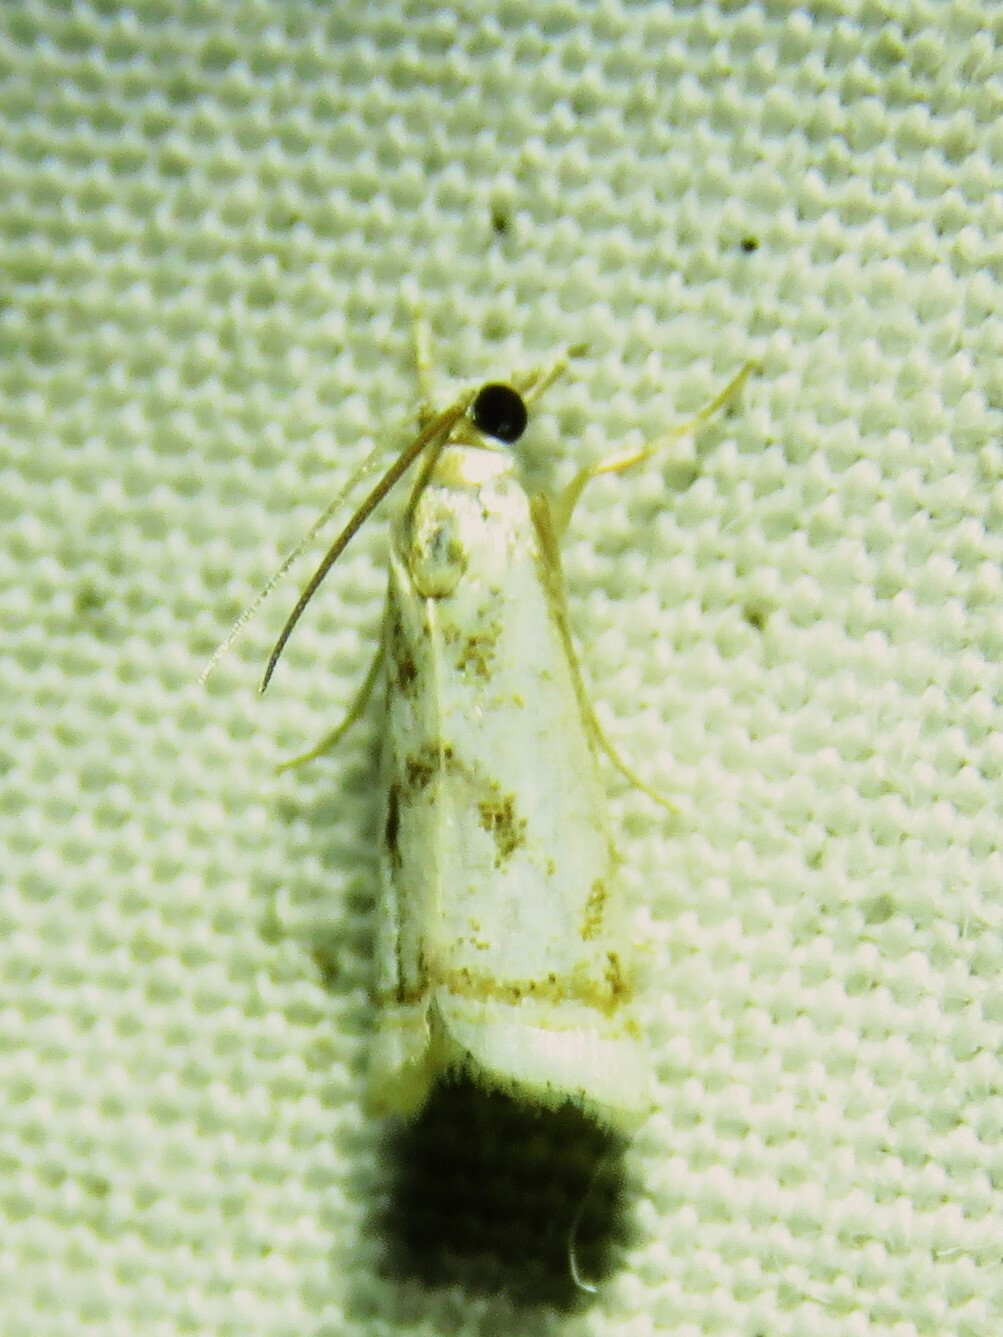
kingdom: Animalia
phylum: Arthropoda
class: Insecta
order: Lepidoptera
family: Crambidae
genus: Microcrambus
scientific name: Microcrambus elegans
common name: Elegant grass-veneer
